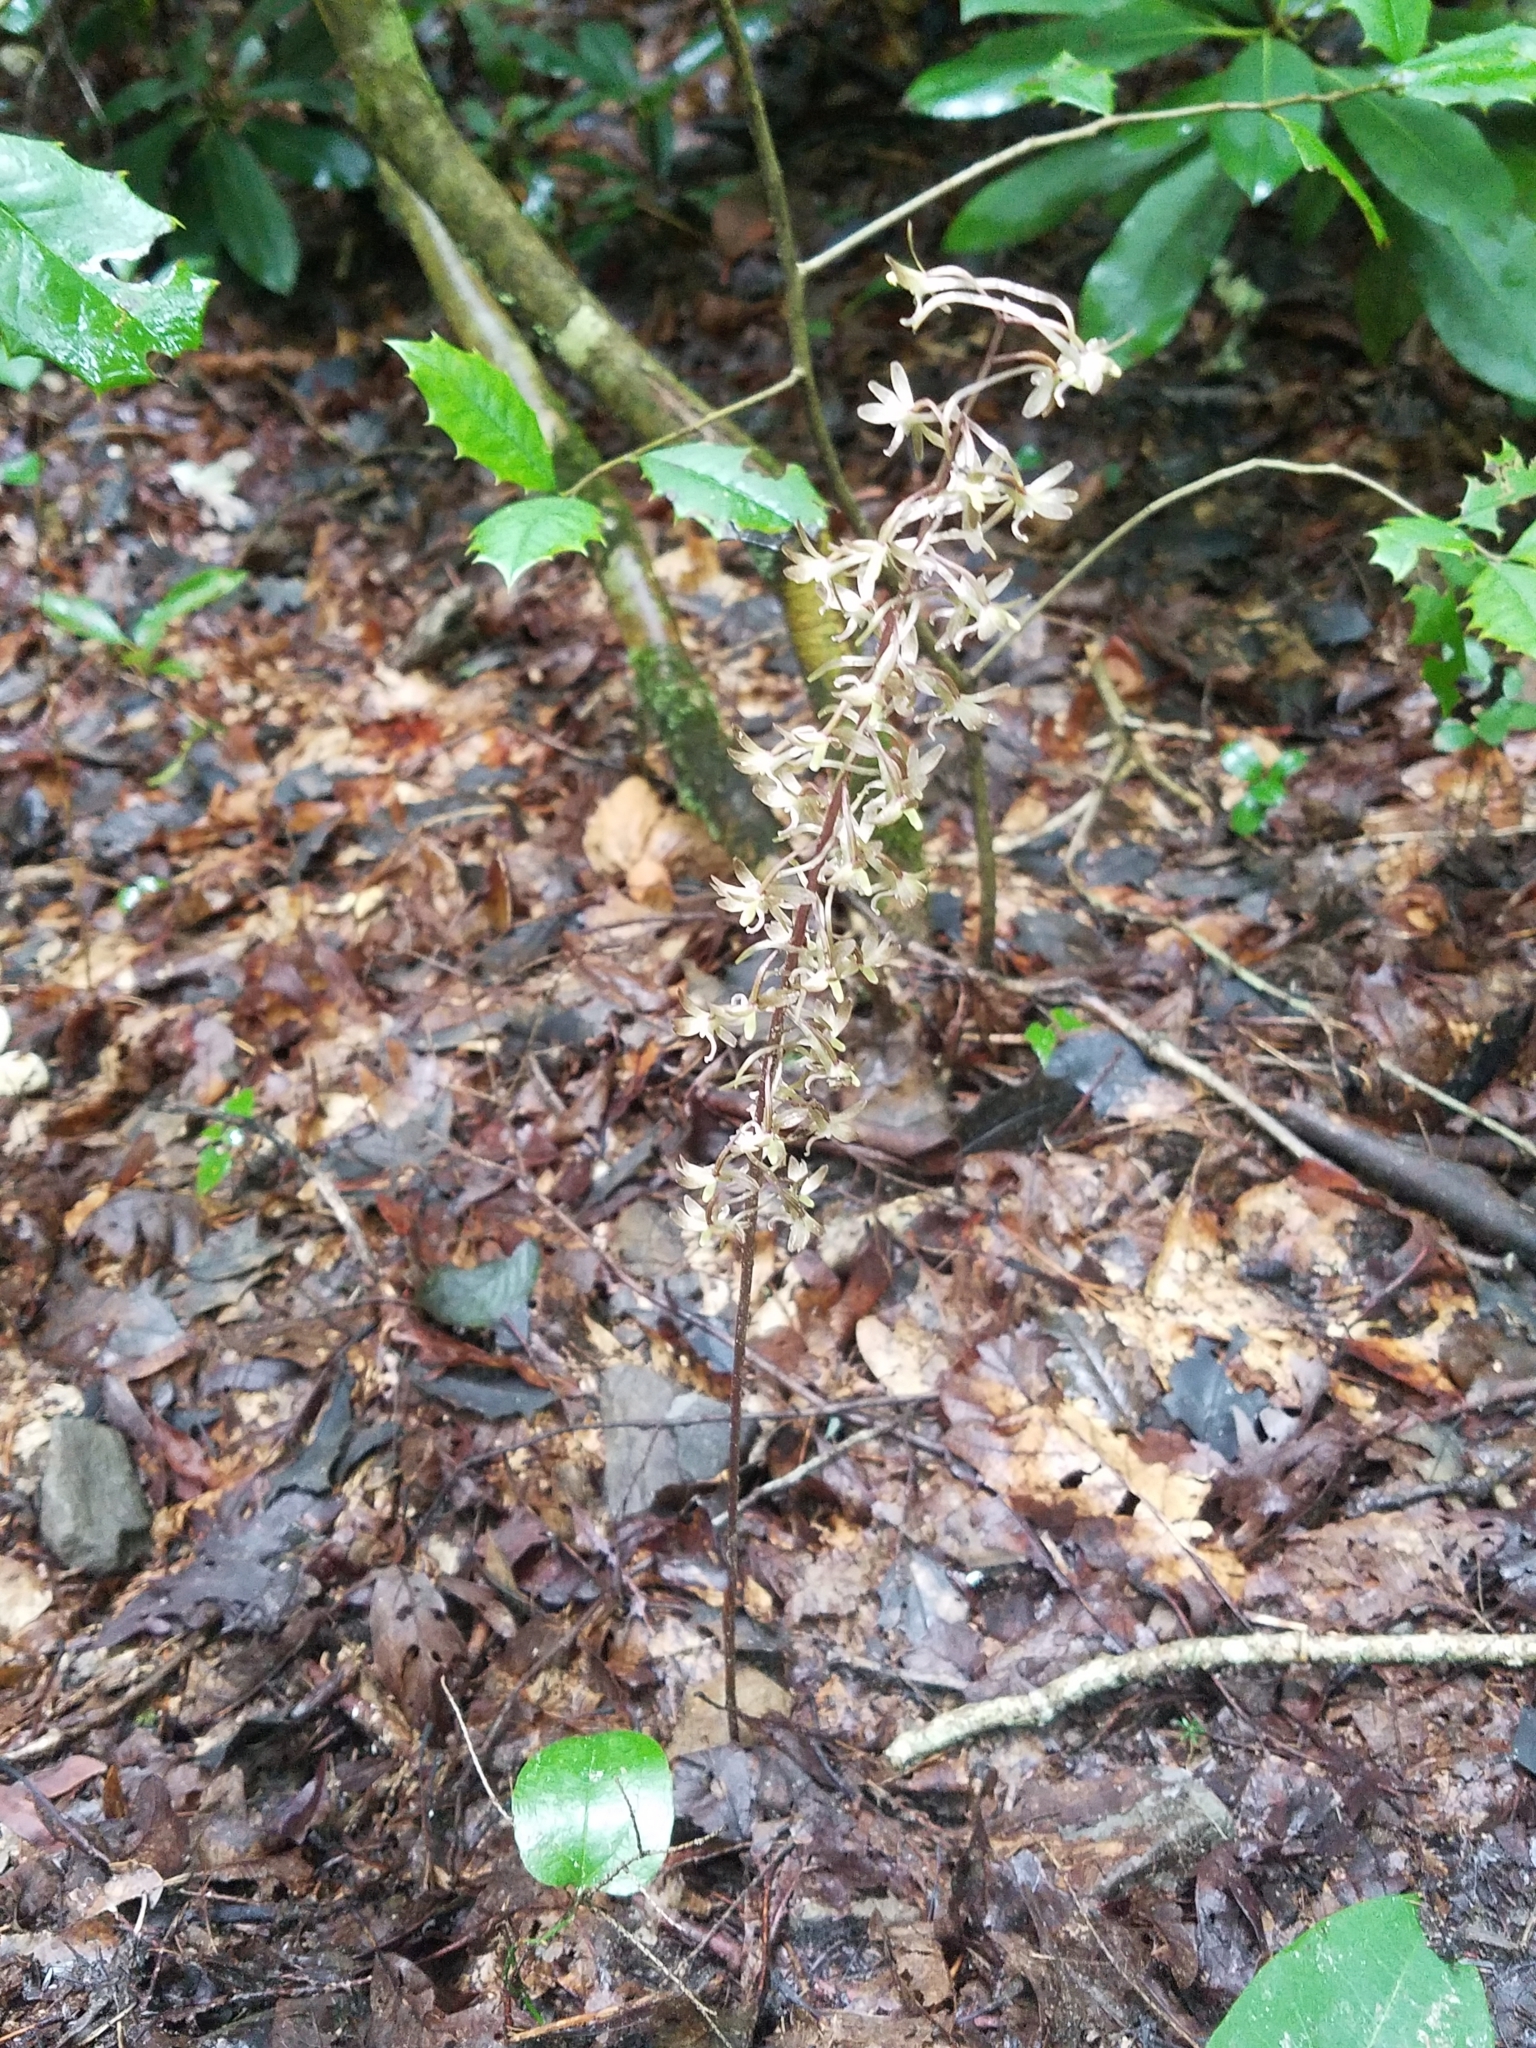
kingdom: Plantae
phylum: Tracheophyta
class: Liliopsida
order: Asparagales
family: Orchidaceae
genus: Tipularia
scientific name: Tipularia discolor
